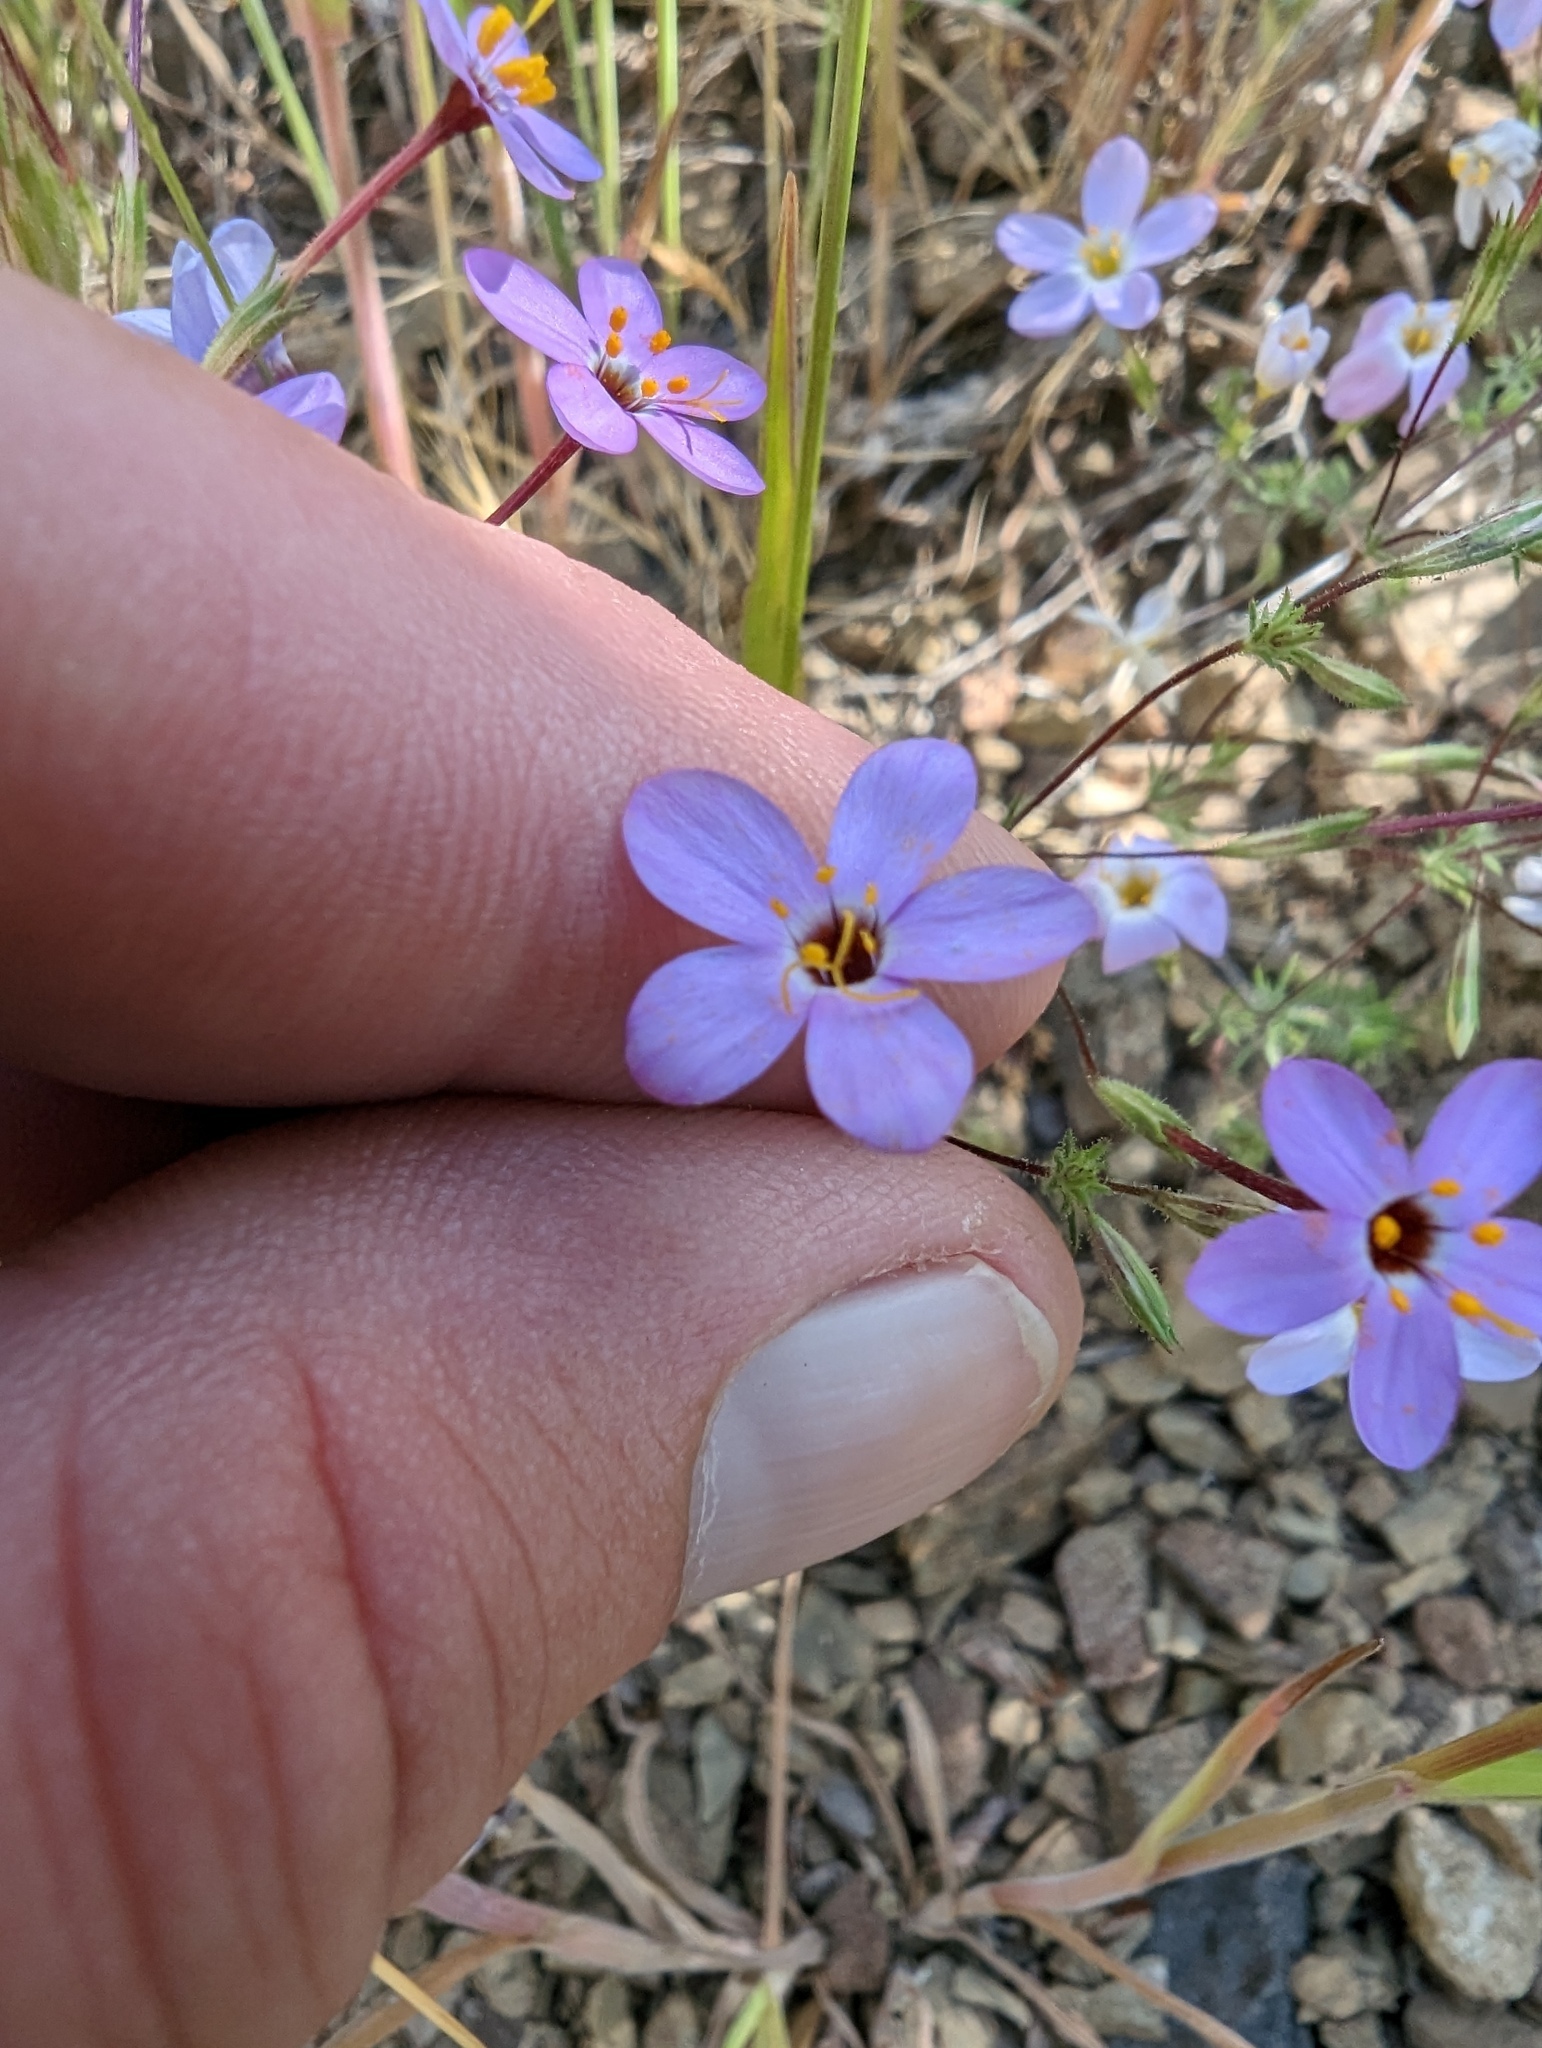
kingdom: Plantae
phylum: Tracheophyta
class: Magnoliopsida
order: Ericales
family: Polemoniaceae
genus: Leptosiphon
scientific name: Leptosiphon ambiguus
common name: Serpentine linanthus
